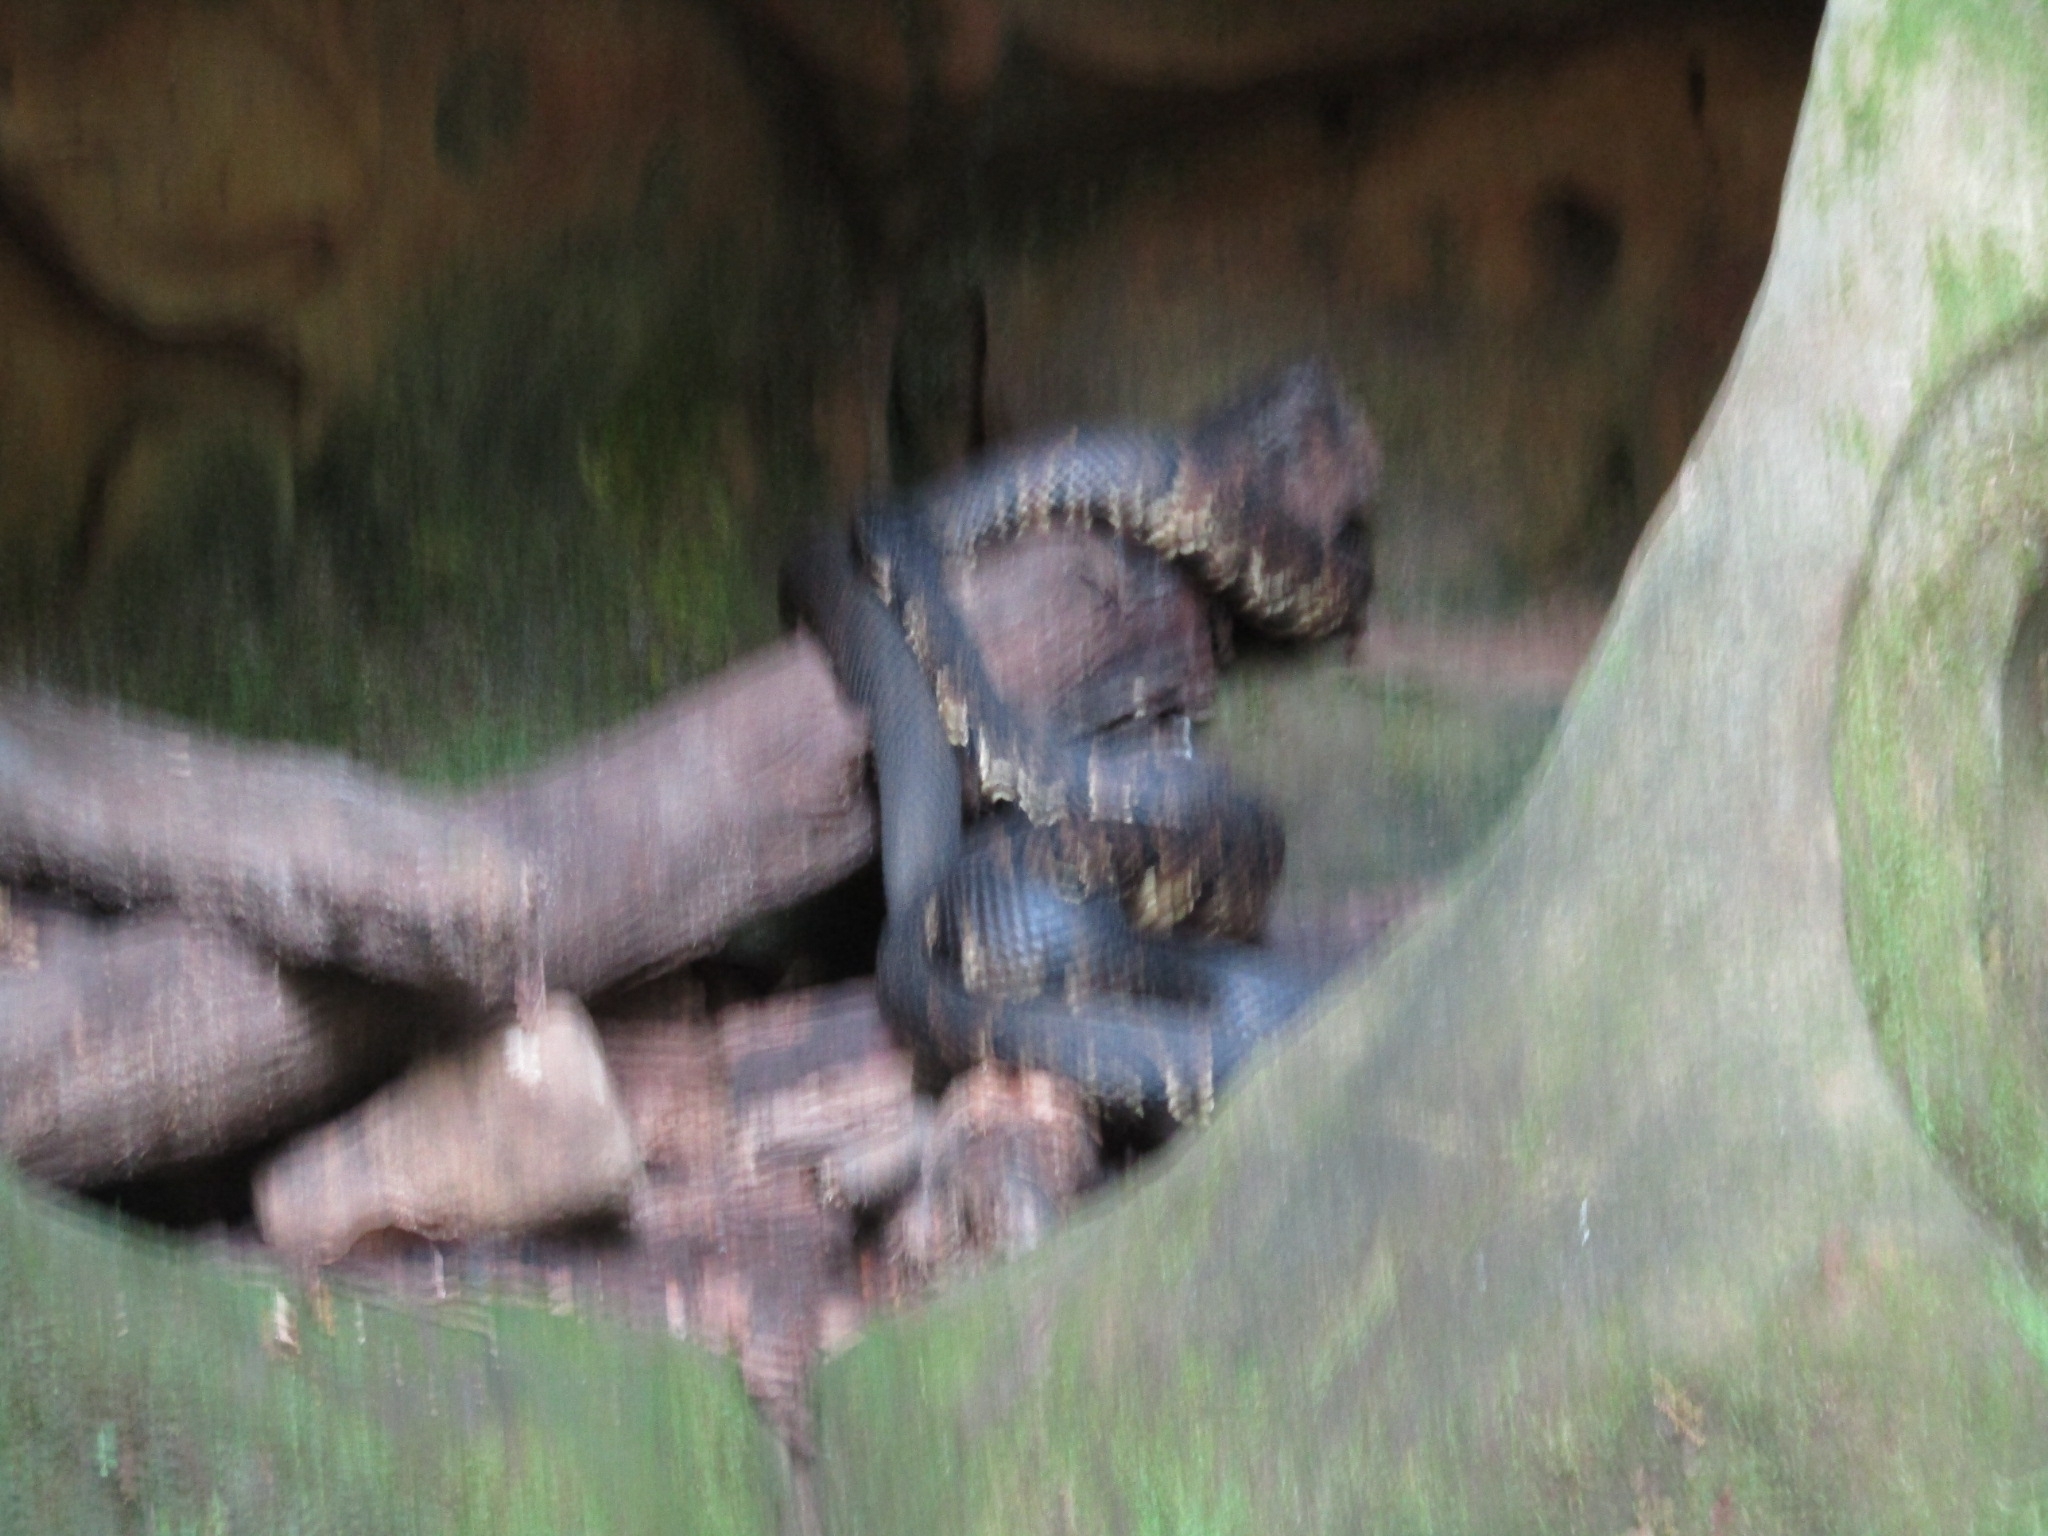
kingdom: Animalia
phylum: Chordata
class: Squamata
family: Viperidae
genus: Agkistrodon
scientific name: Agkistrodon piscivorus
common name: Cottonmouth
